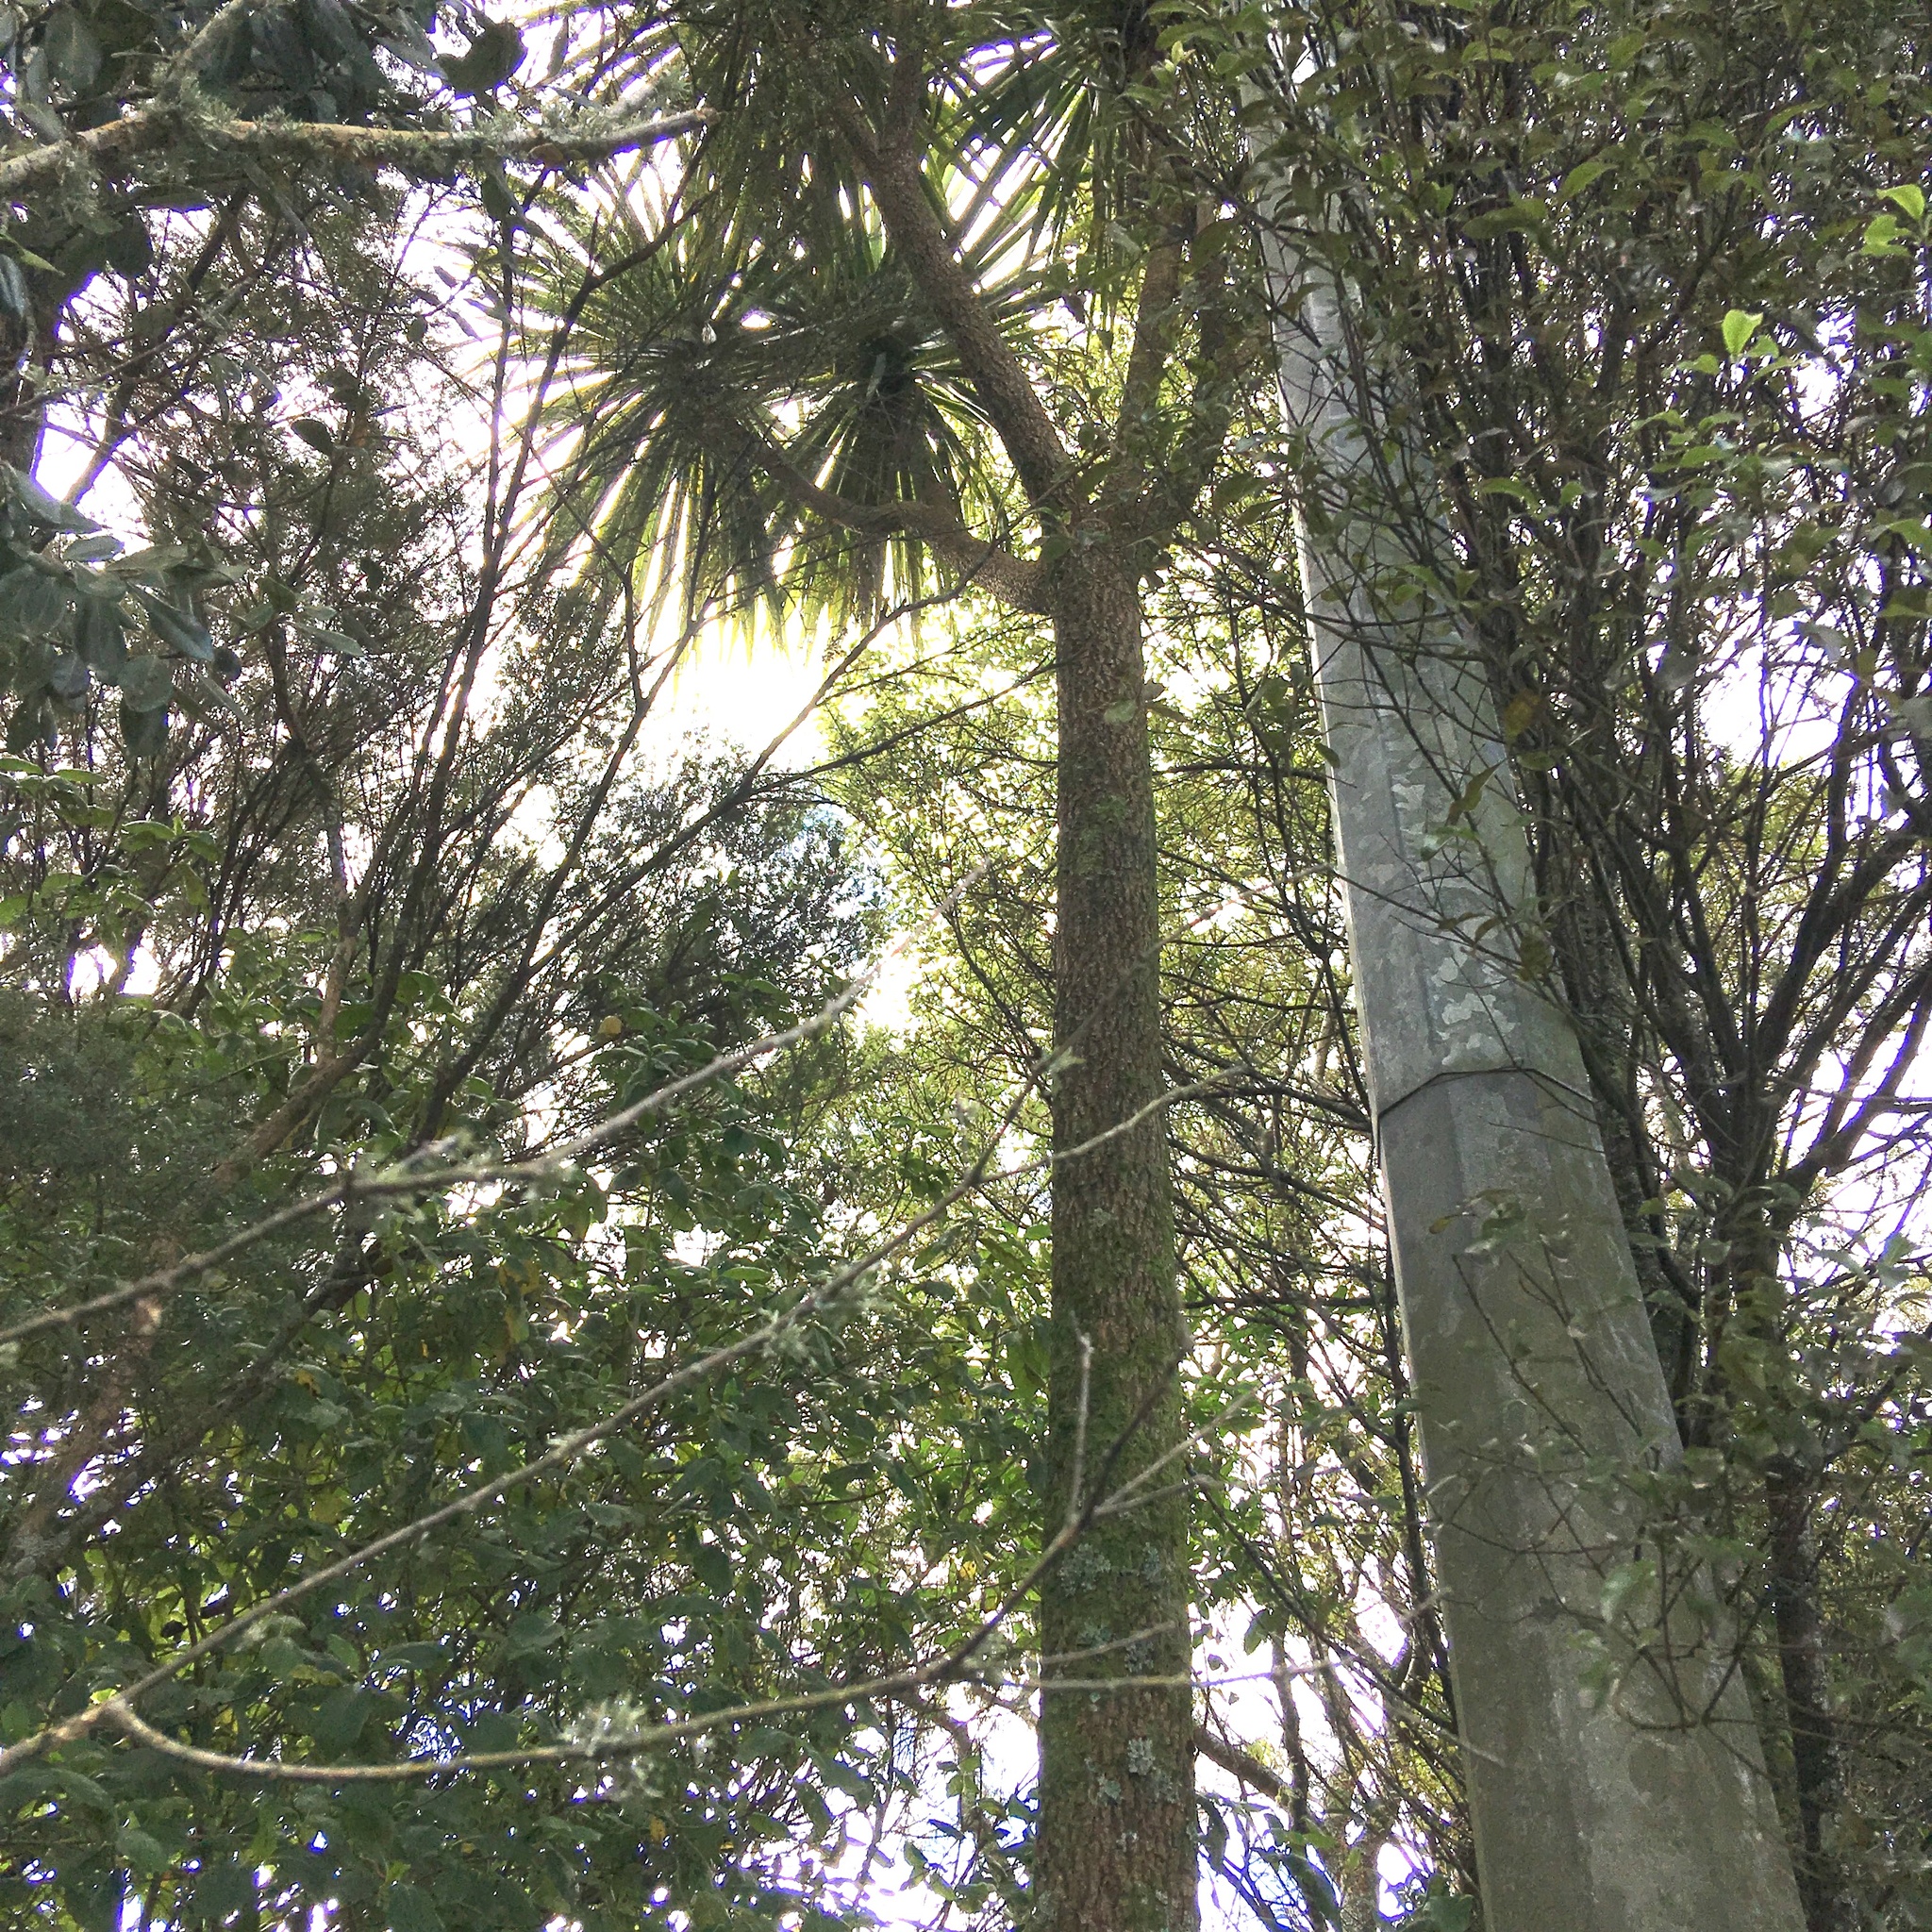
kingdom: Plantae
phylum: Tracheophyta
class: Liliopsida
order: Asparagales
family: Asparagaceae
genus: Cordyline
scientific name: Cordyline australis
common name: Cabbage-palm
